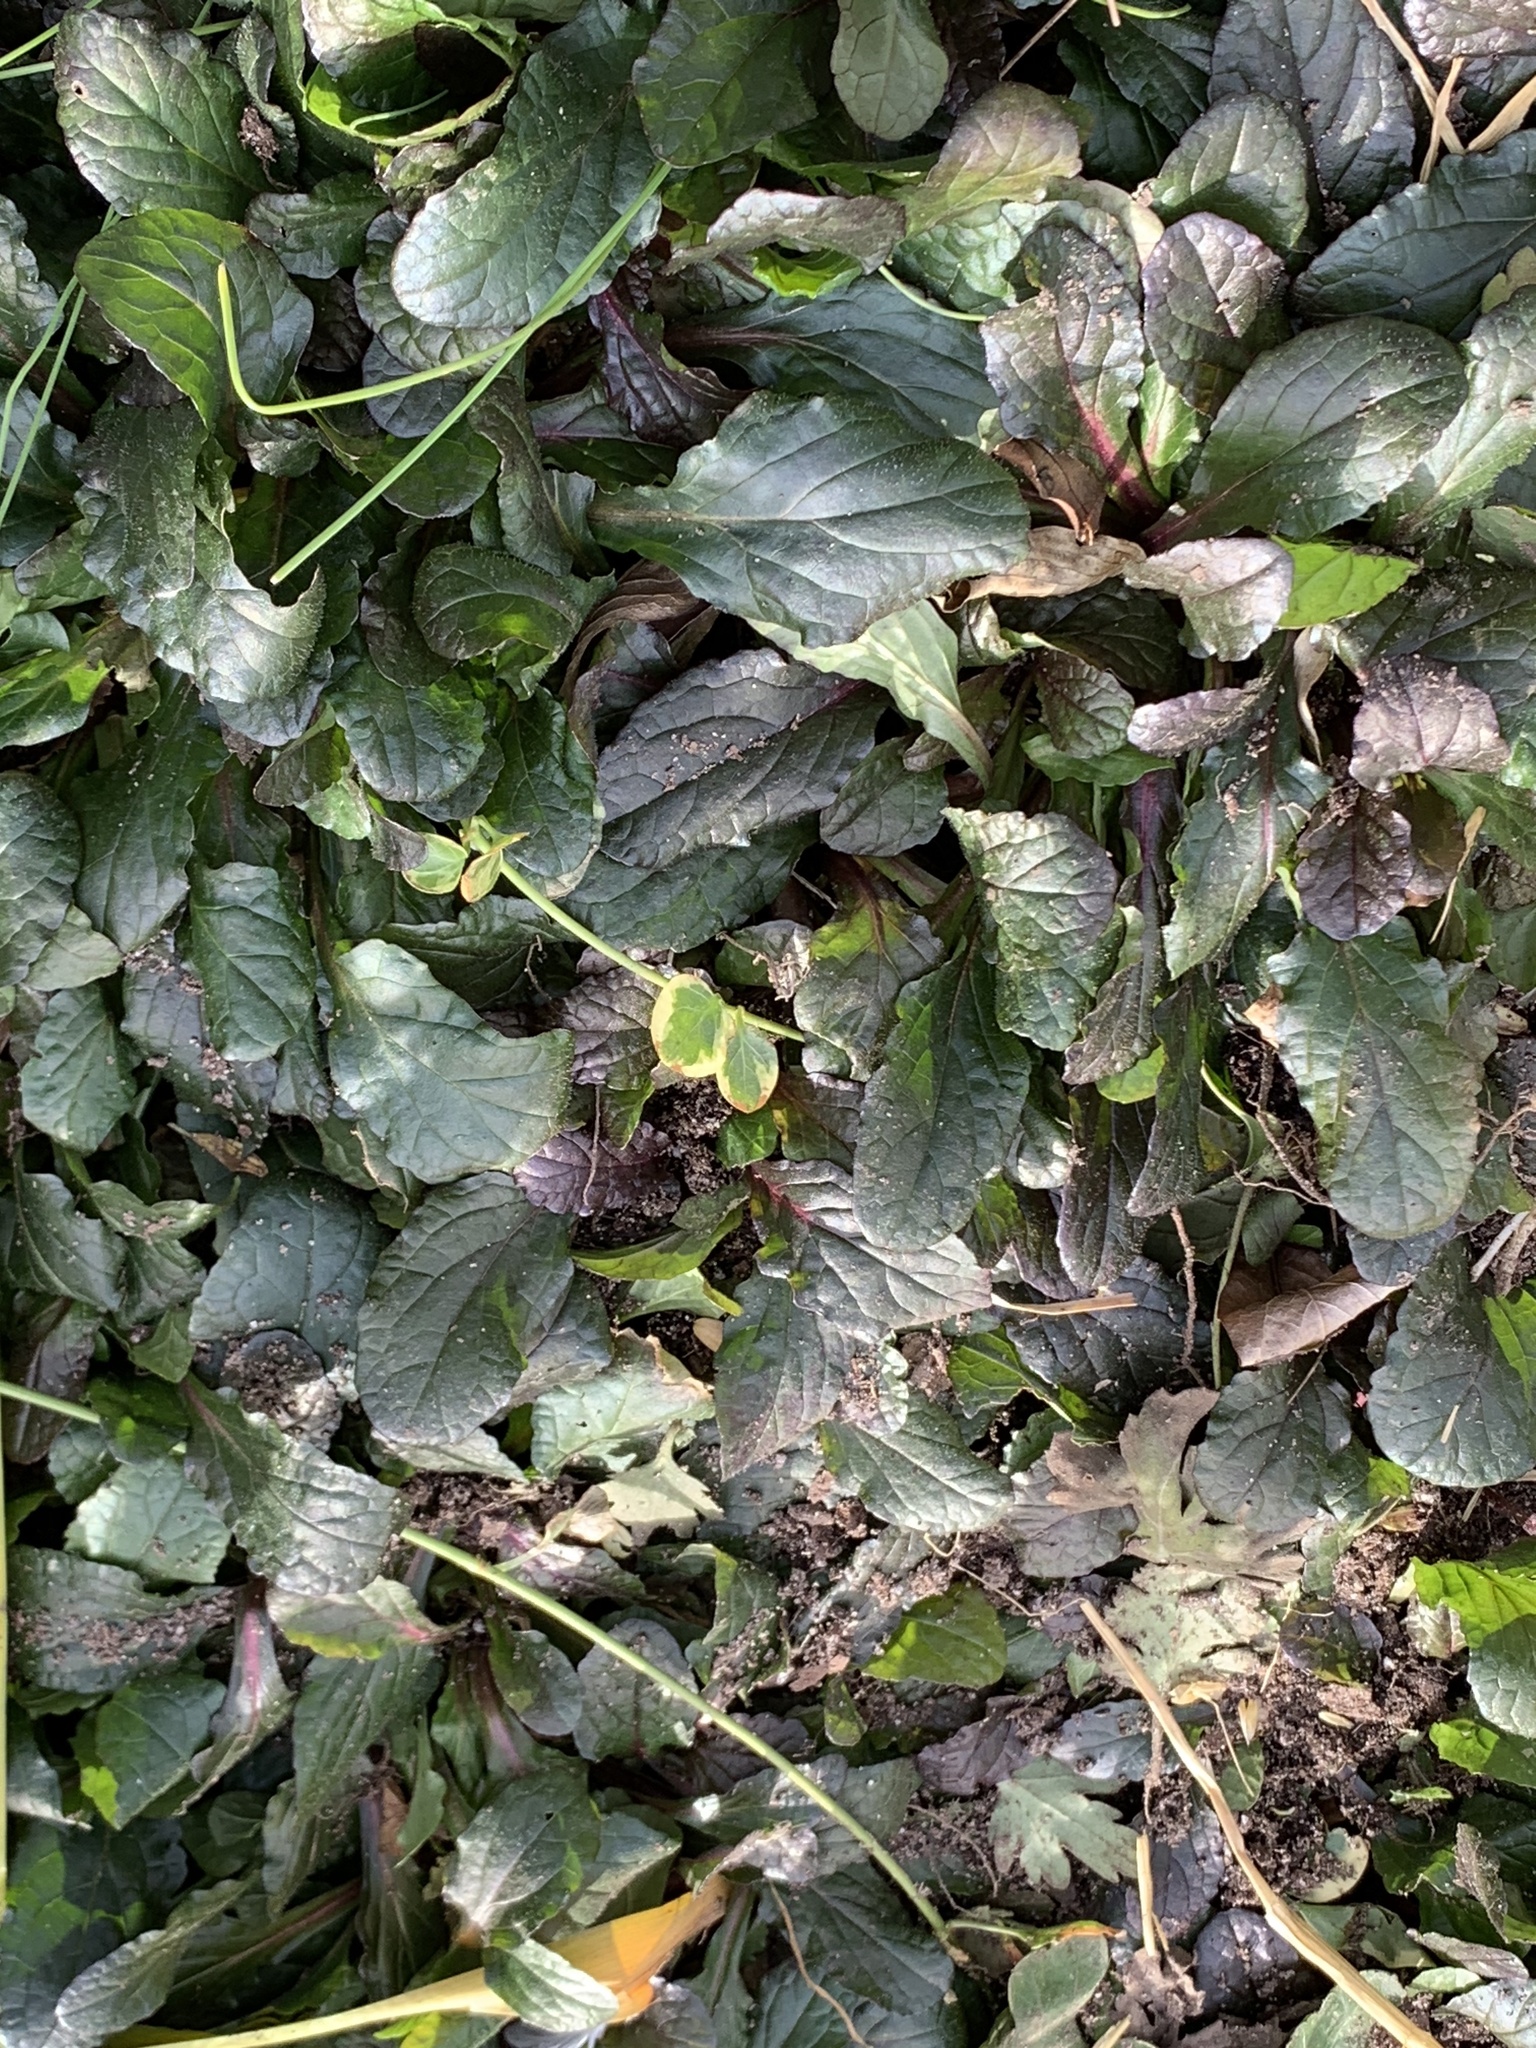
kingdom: Plantae
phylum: Tracheophyta
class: Magnoliopsida
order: Lamiales
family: Lamiaceae
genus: Ajuga
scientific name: Ajuga reptans
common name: Bugle
